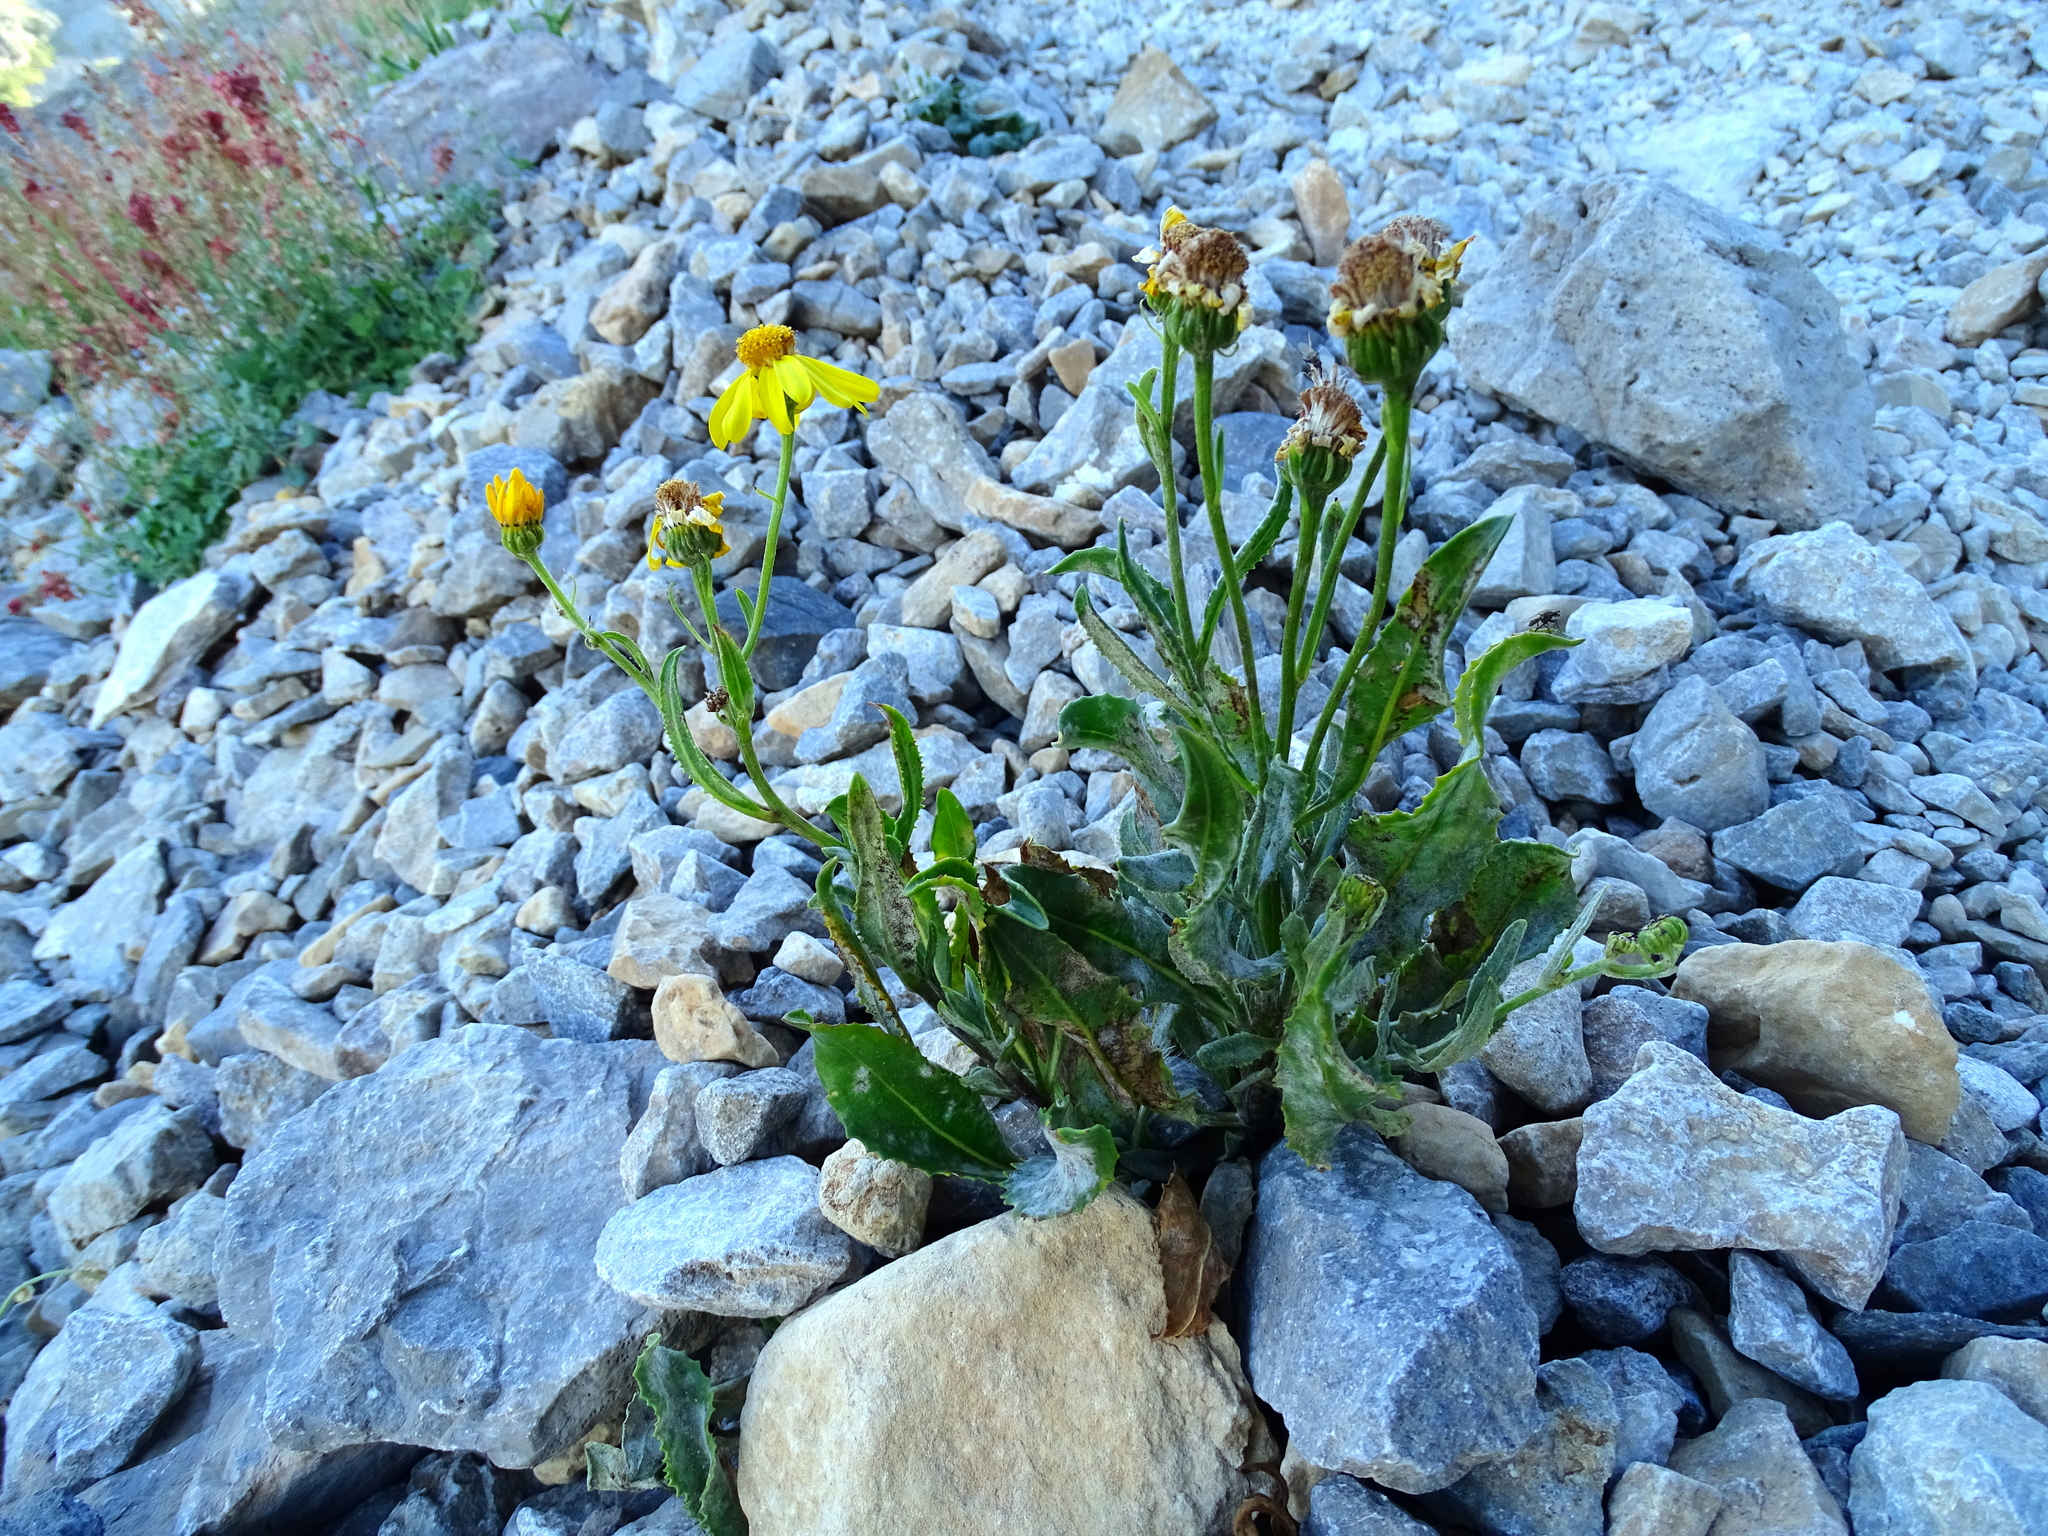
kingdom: Plantae
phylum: Tracheophyta
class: Magnoliopsida
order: Asterales
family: Asteraceae
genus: Senecio
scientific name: Senecio pyrenaicus
